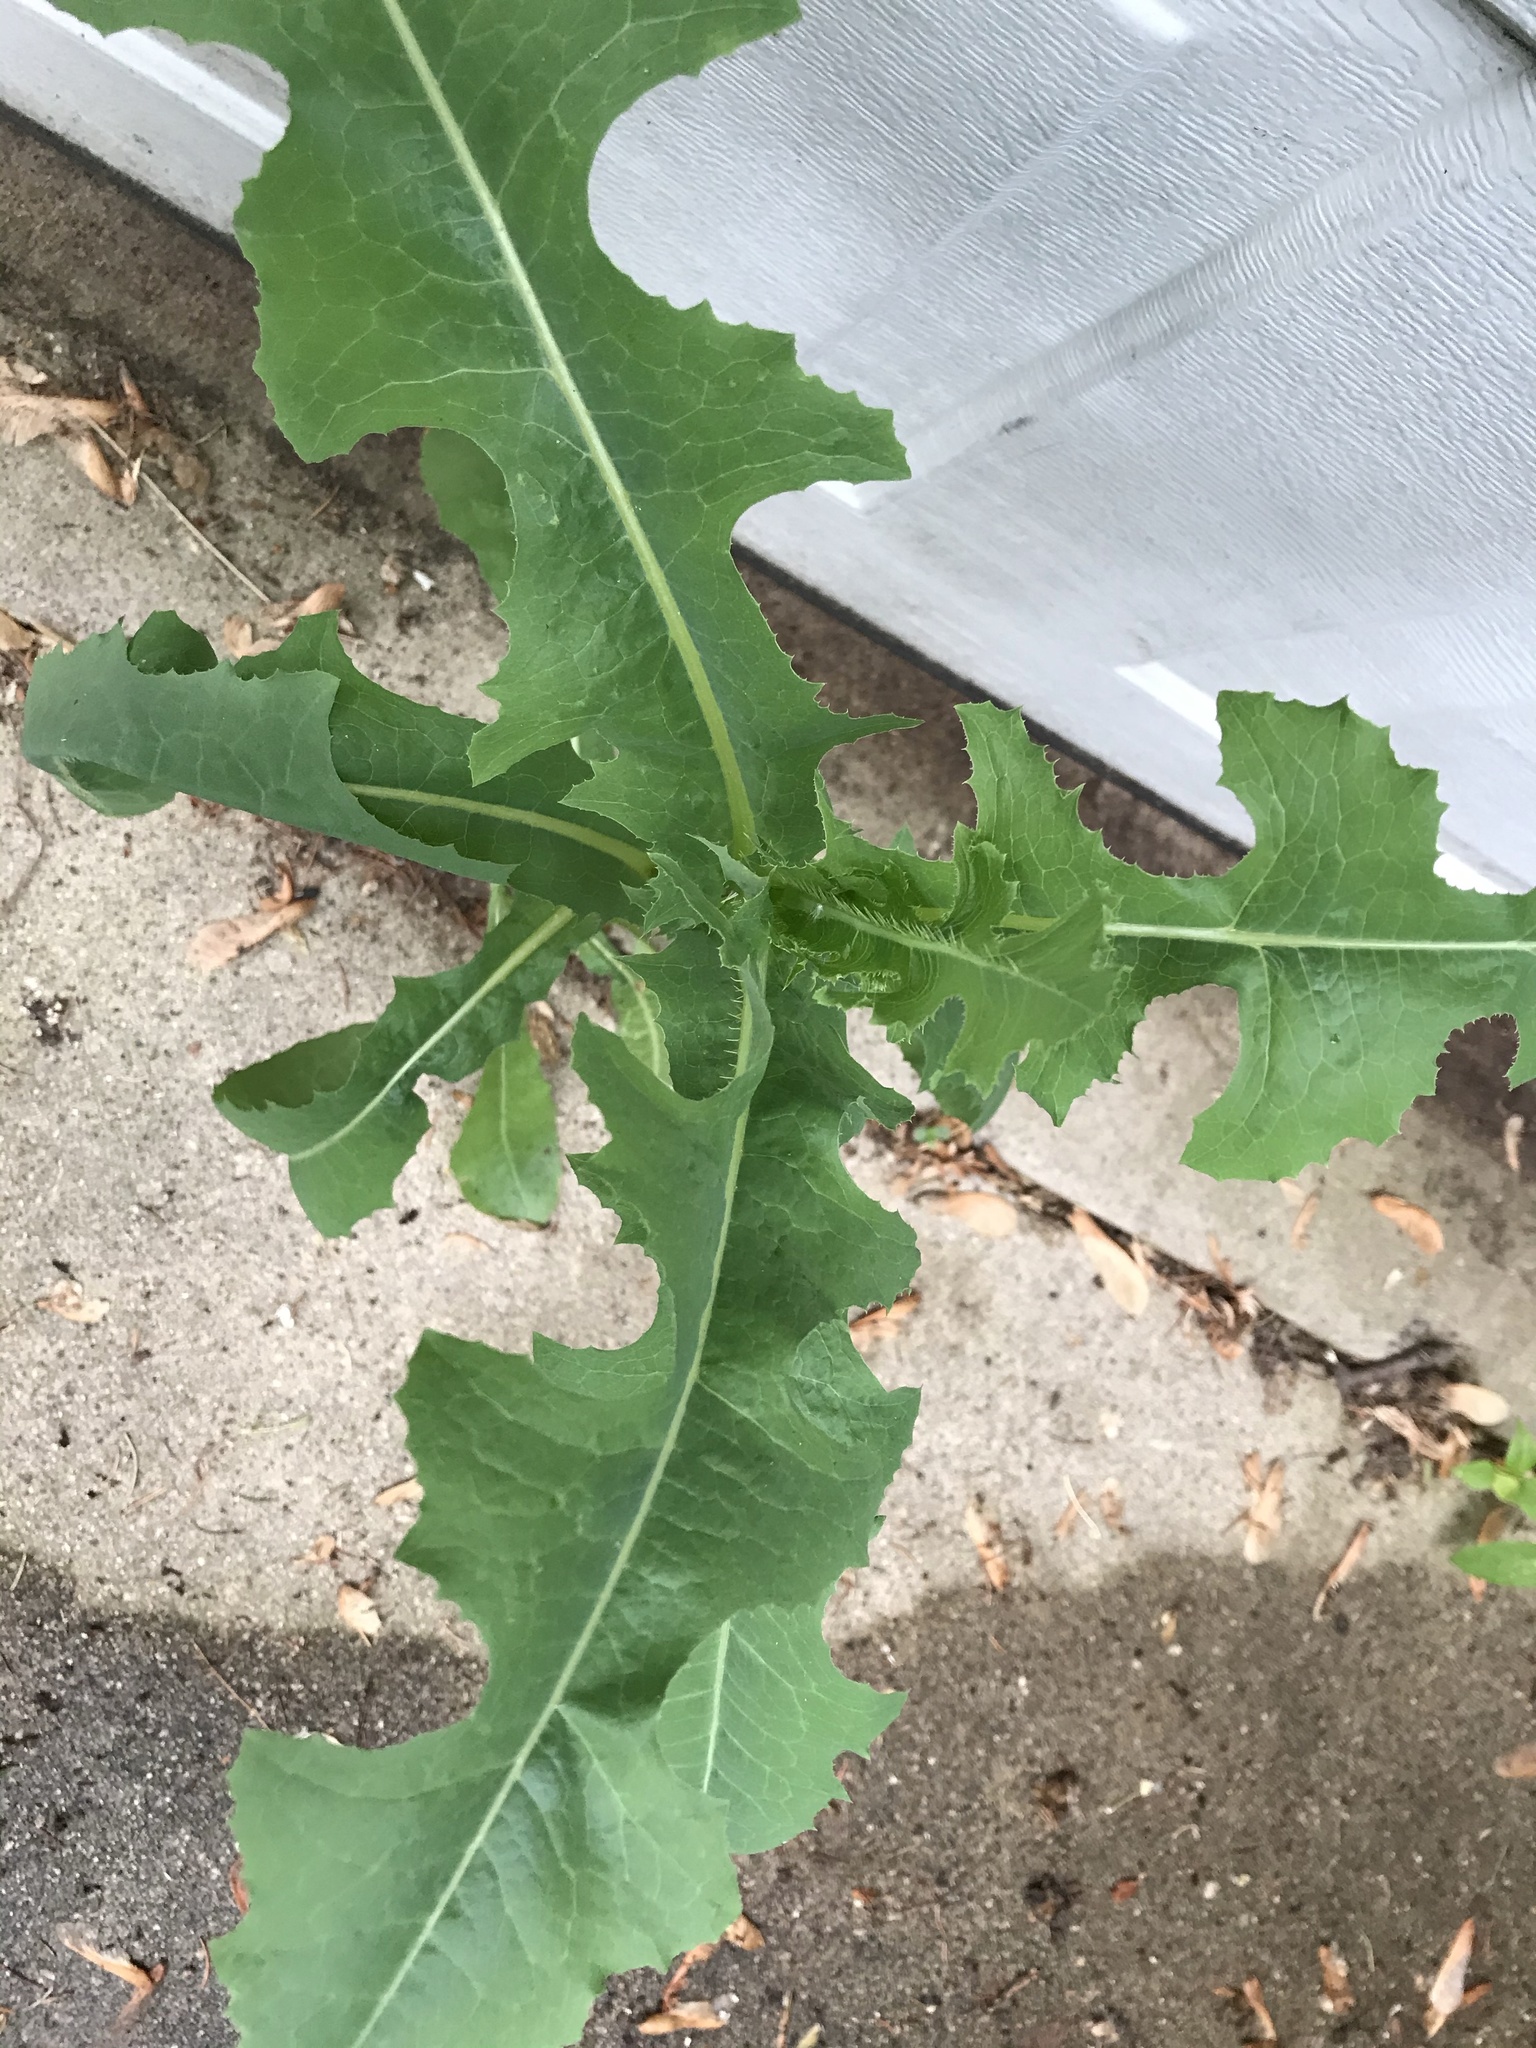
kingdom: Plantae
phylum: Tracheophyta
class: Magnoliopsida
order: Asterales
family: Asteraceae
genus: Lactuca
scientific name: Lactuca serriola
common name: Prickly lettuce
